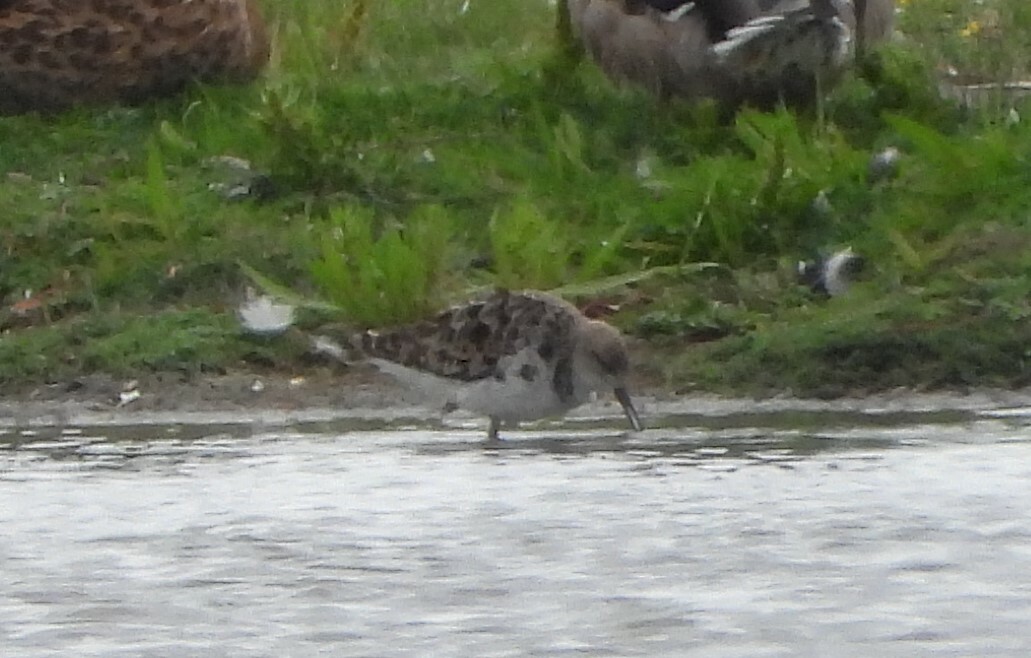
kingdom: Animalia
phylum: Chordata
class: Aves
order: Charadriiformes
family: Scolopacidae
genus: Calidris
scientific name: Calidris pugnax
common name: Ruff
